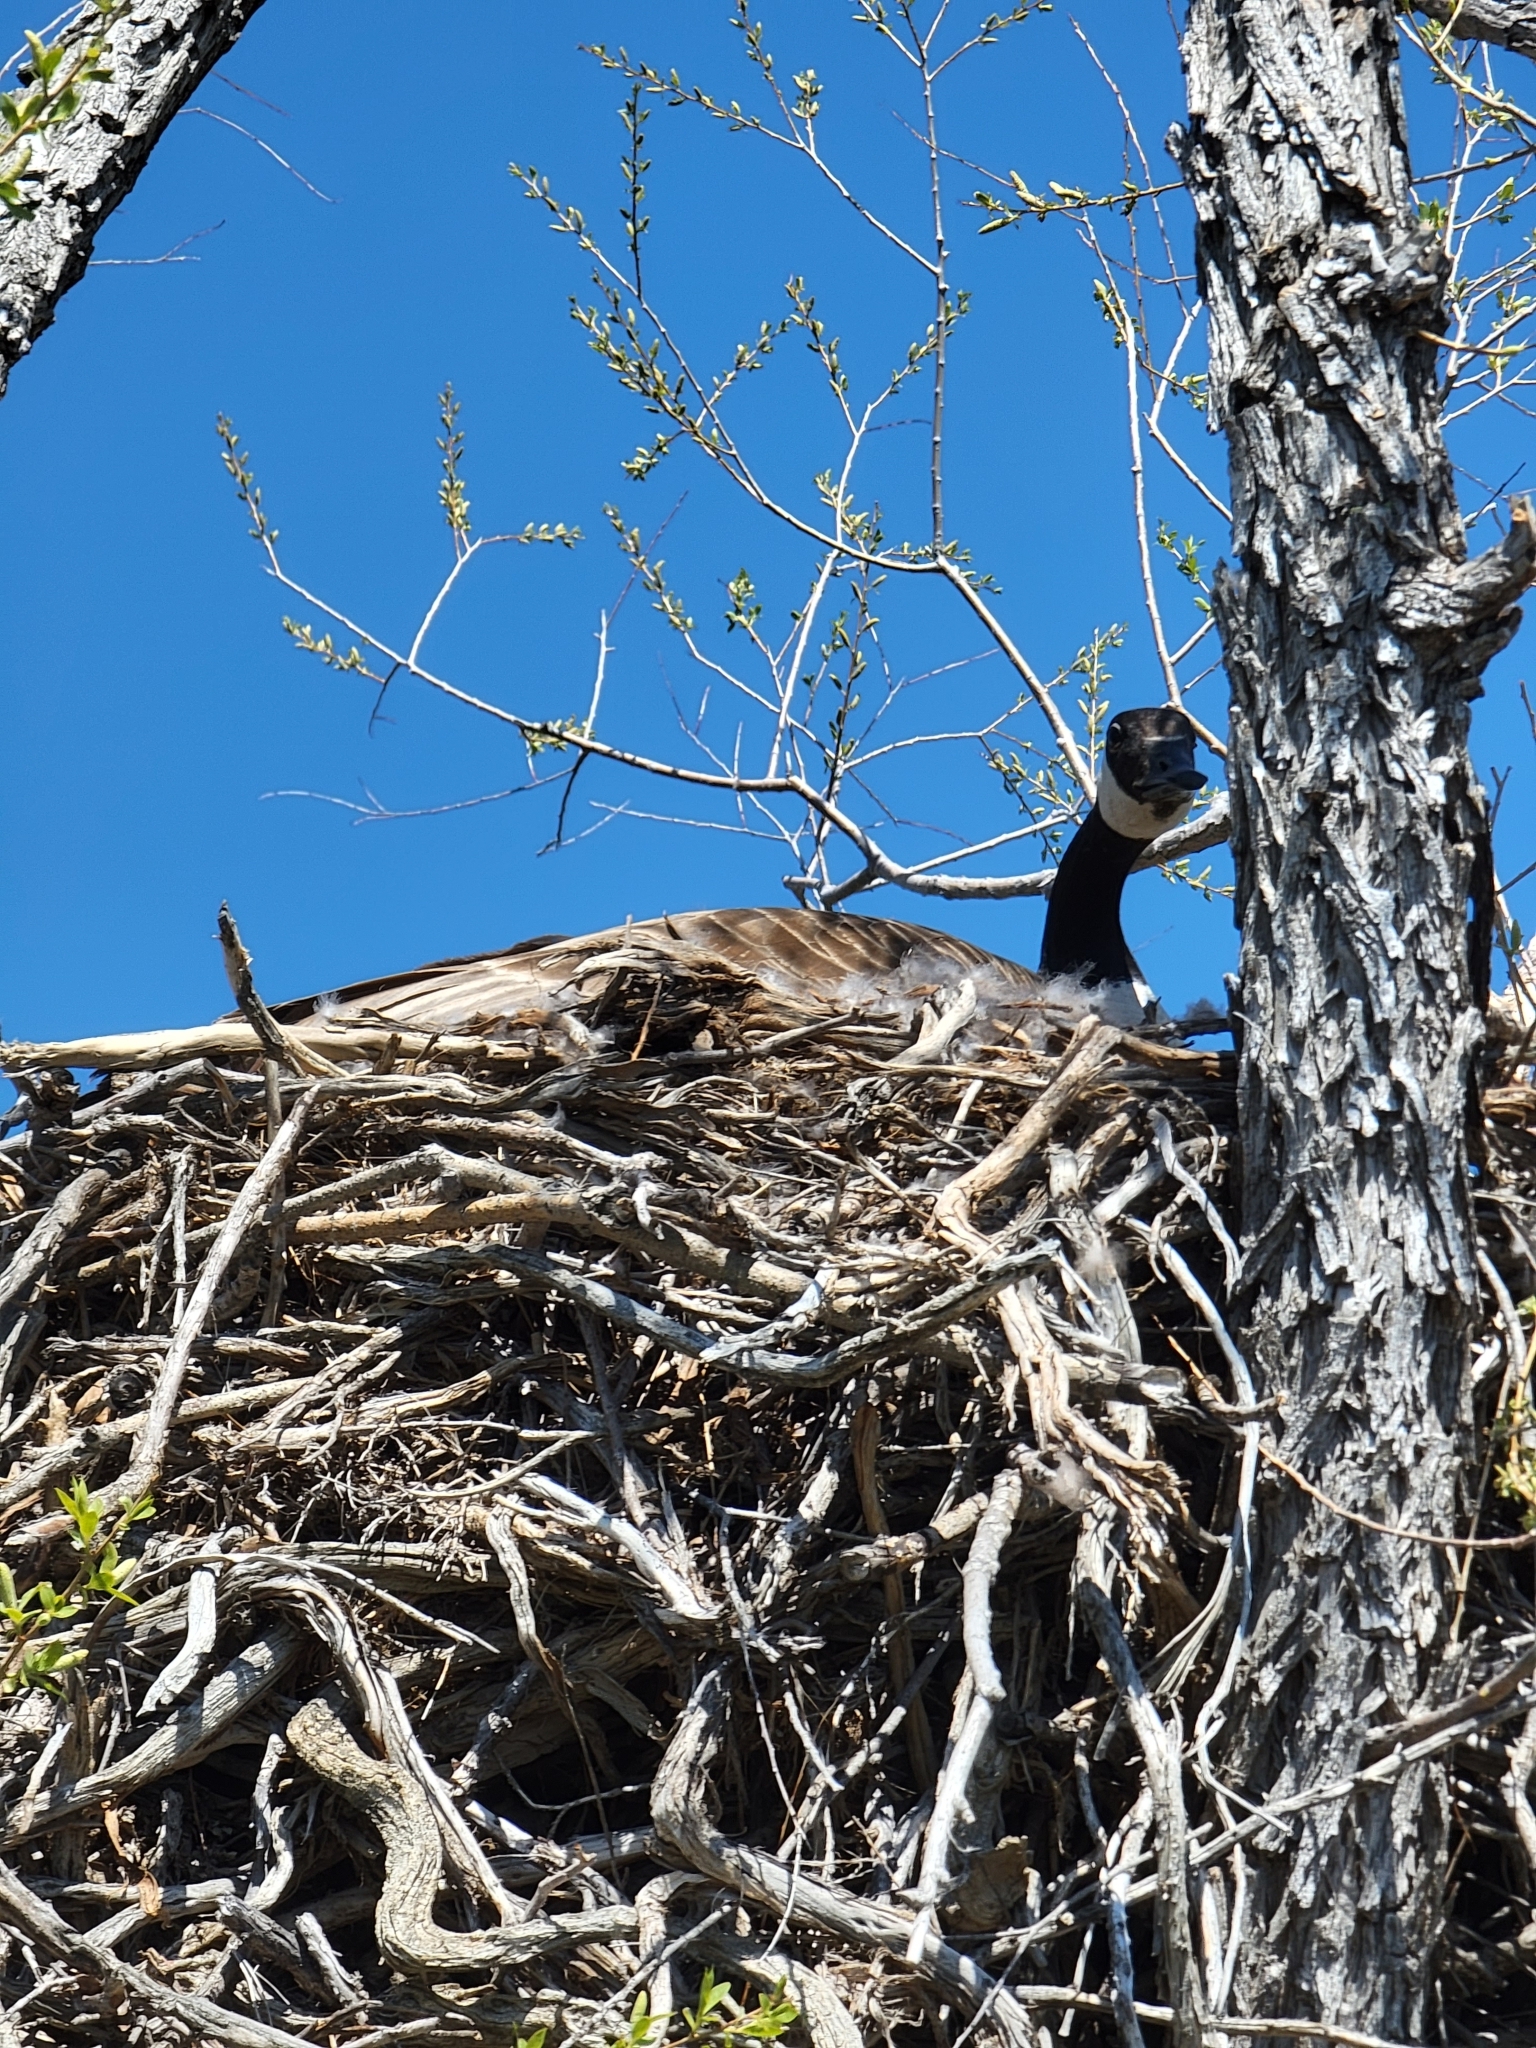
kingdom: Animalia
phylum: Chordata
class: Aves
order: Anseriformes
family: Anatidae
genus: Branta
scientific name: Branta canadensis
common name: Canada goose
